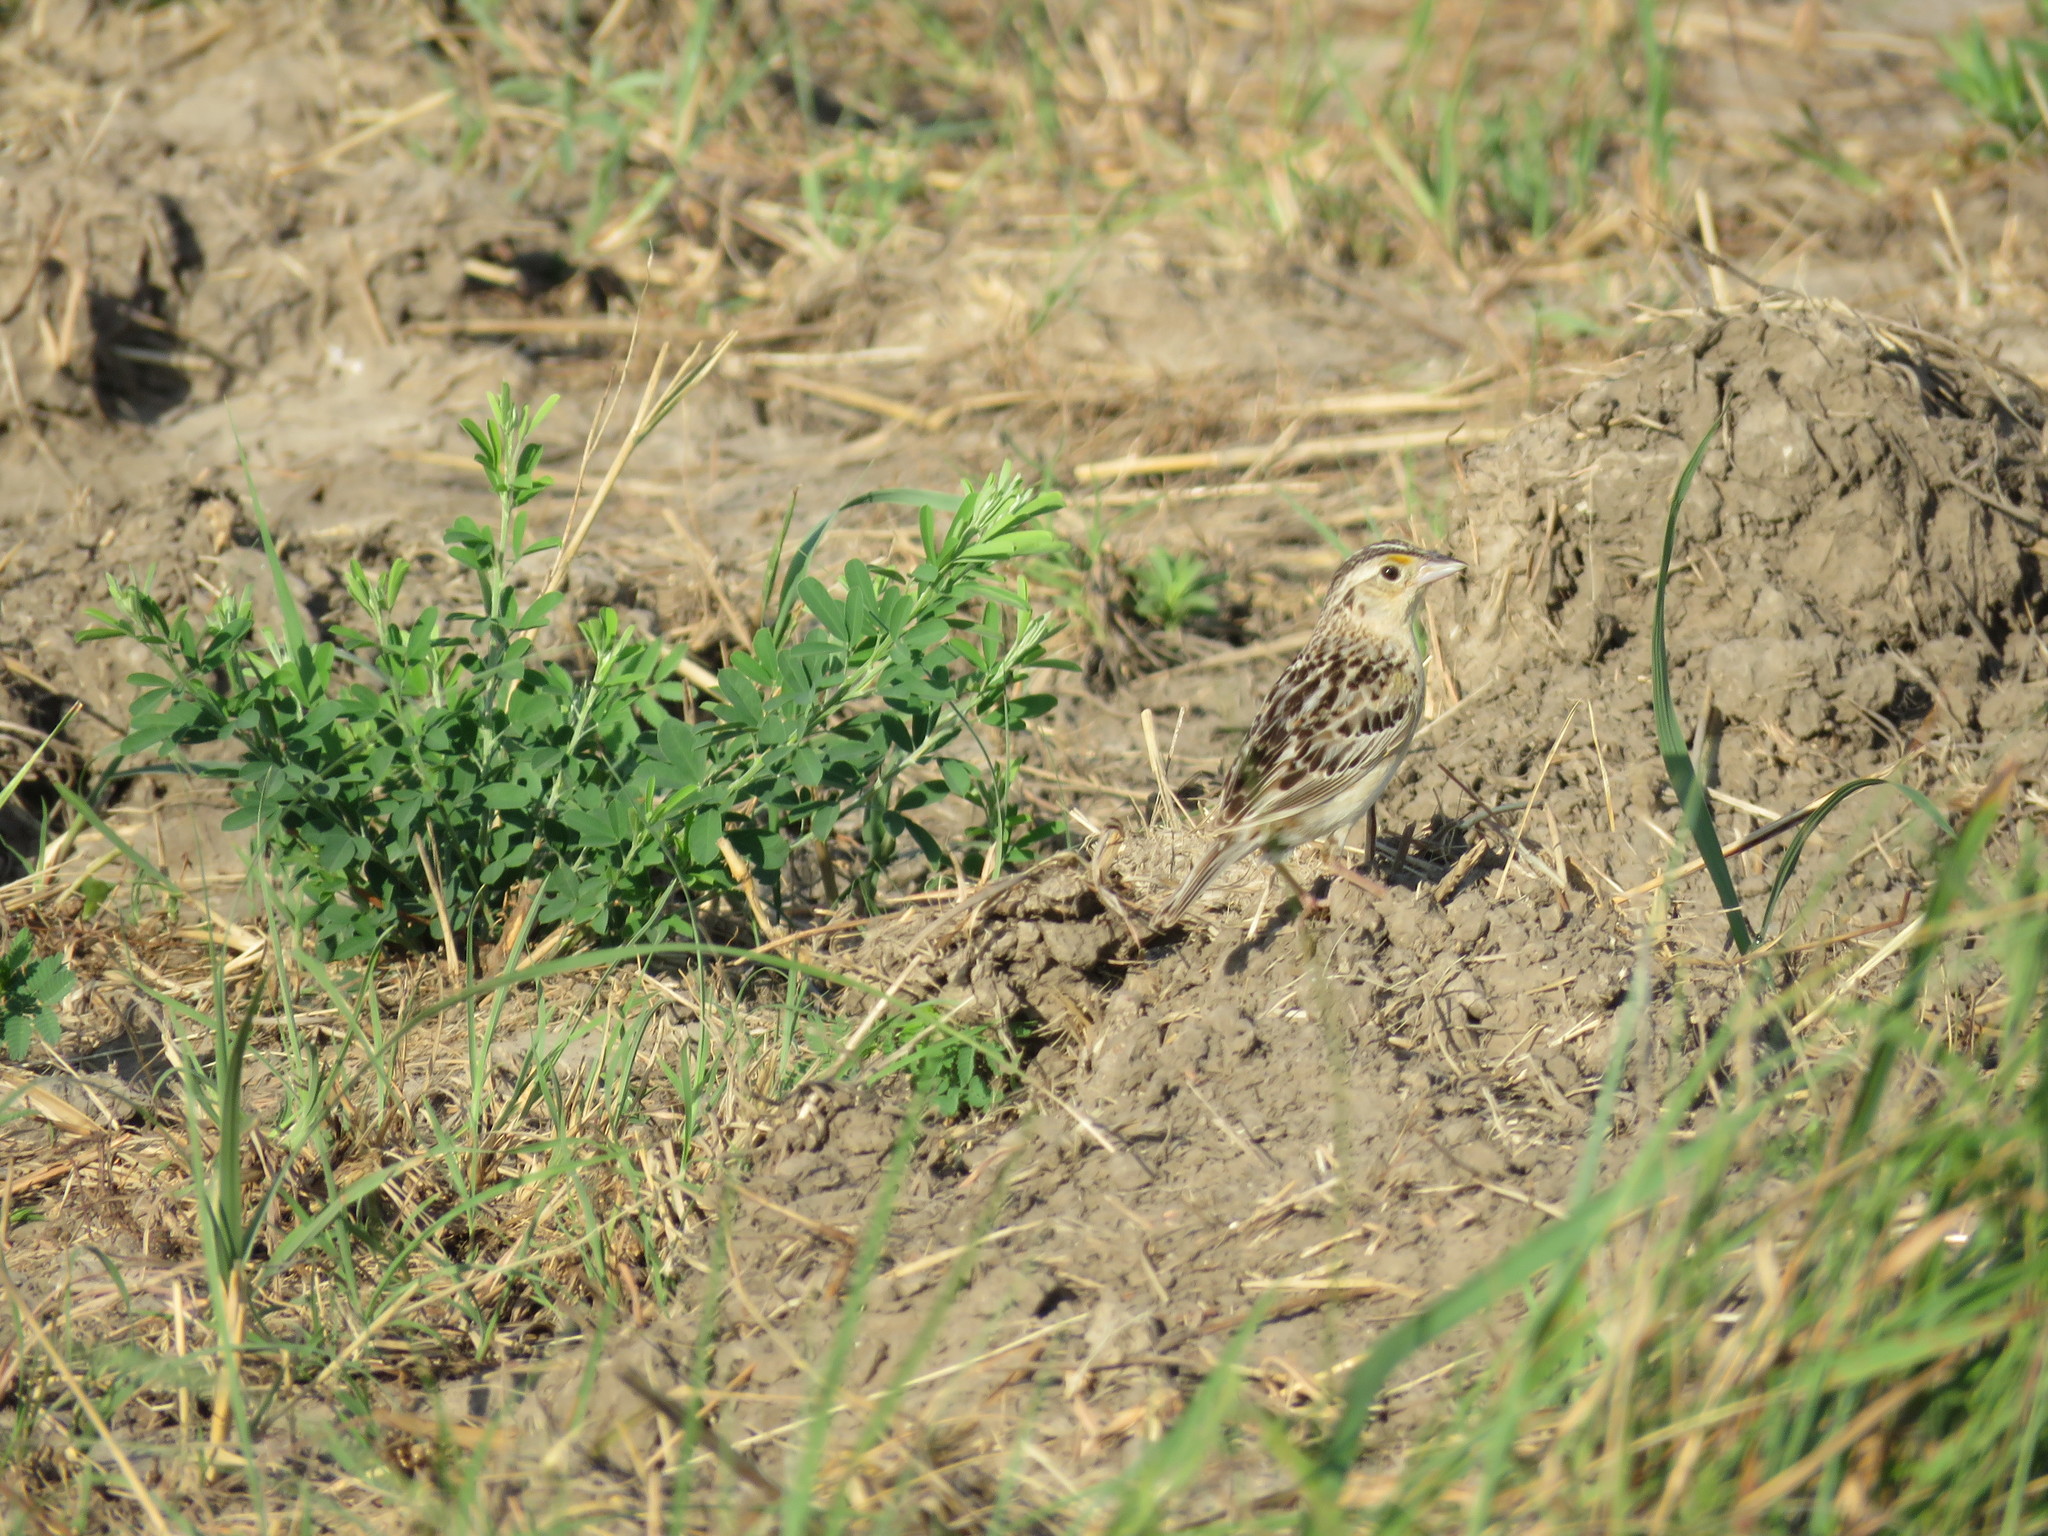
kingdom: Animalia
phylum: Chordata
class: Aves
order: Passeriformes
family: Passerellidae
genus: Ammodramus
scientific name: Ammodramus savannarum
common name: Grasshopper sparrow
